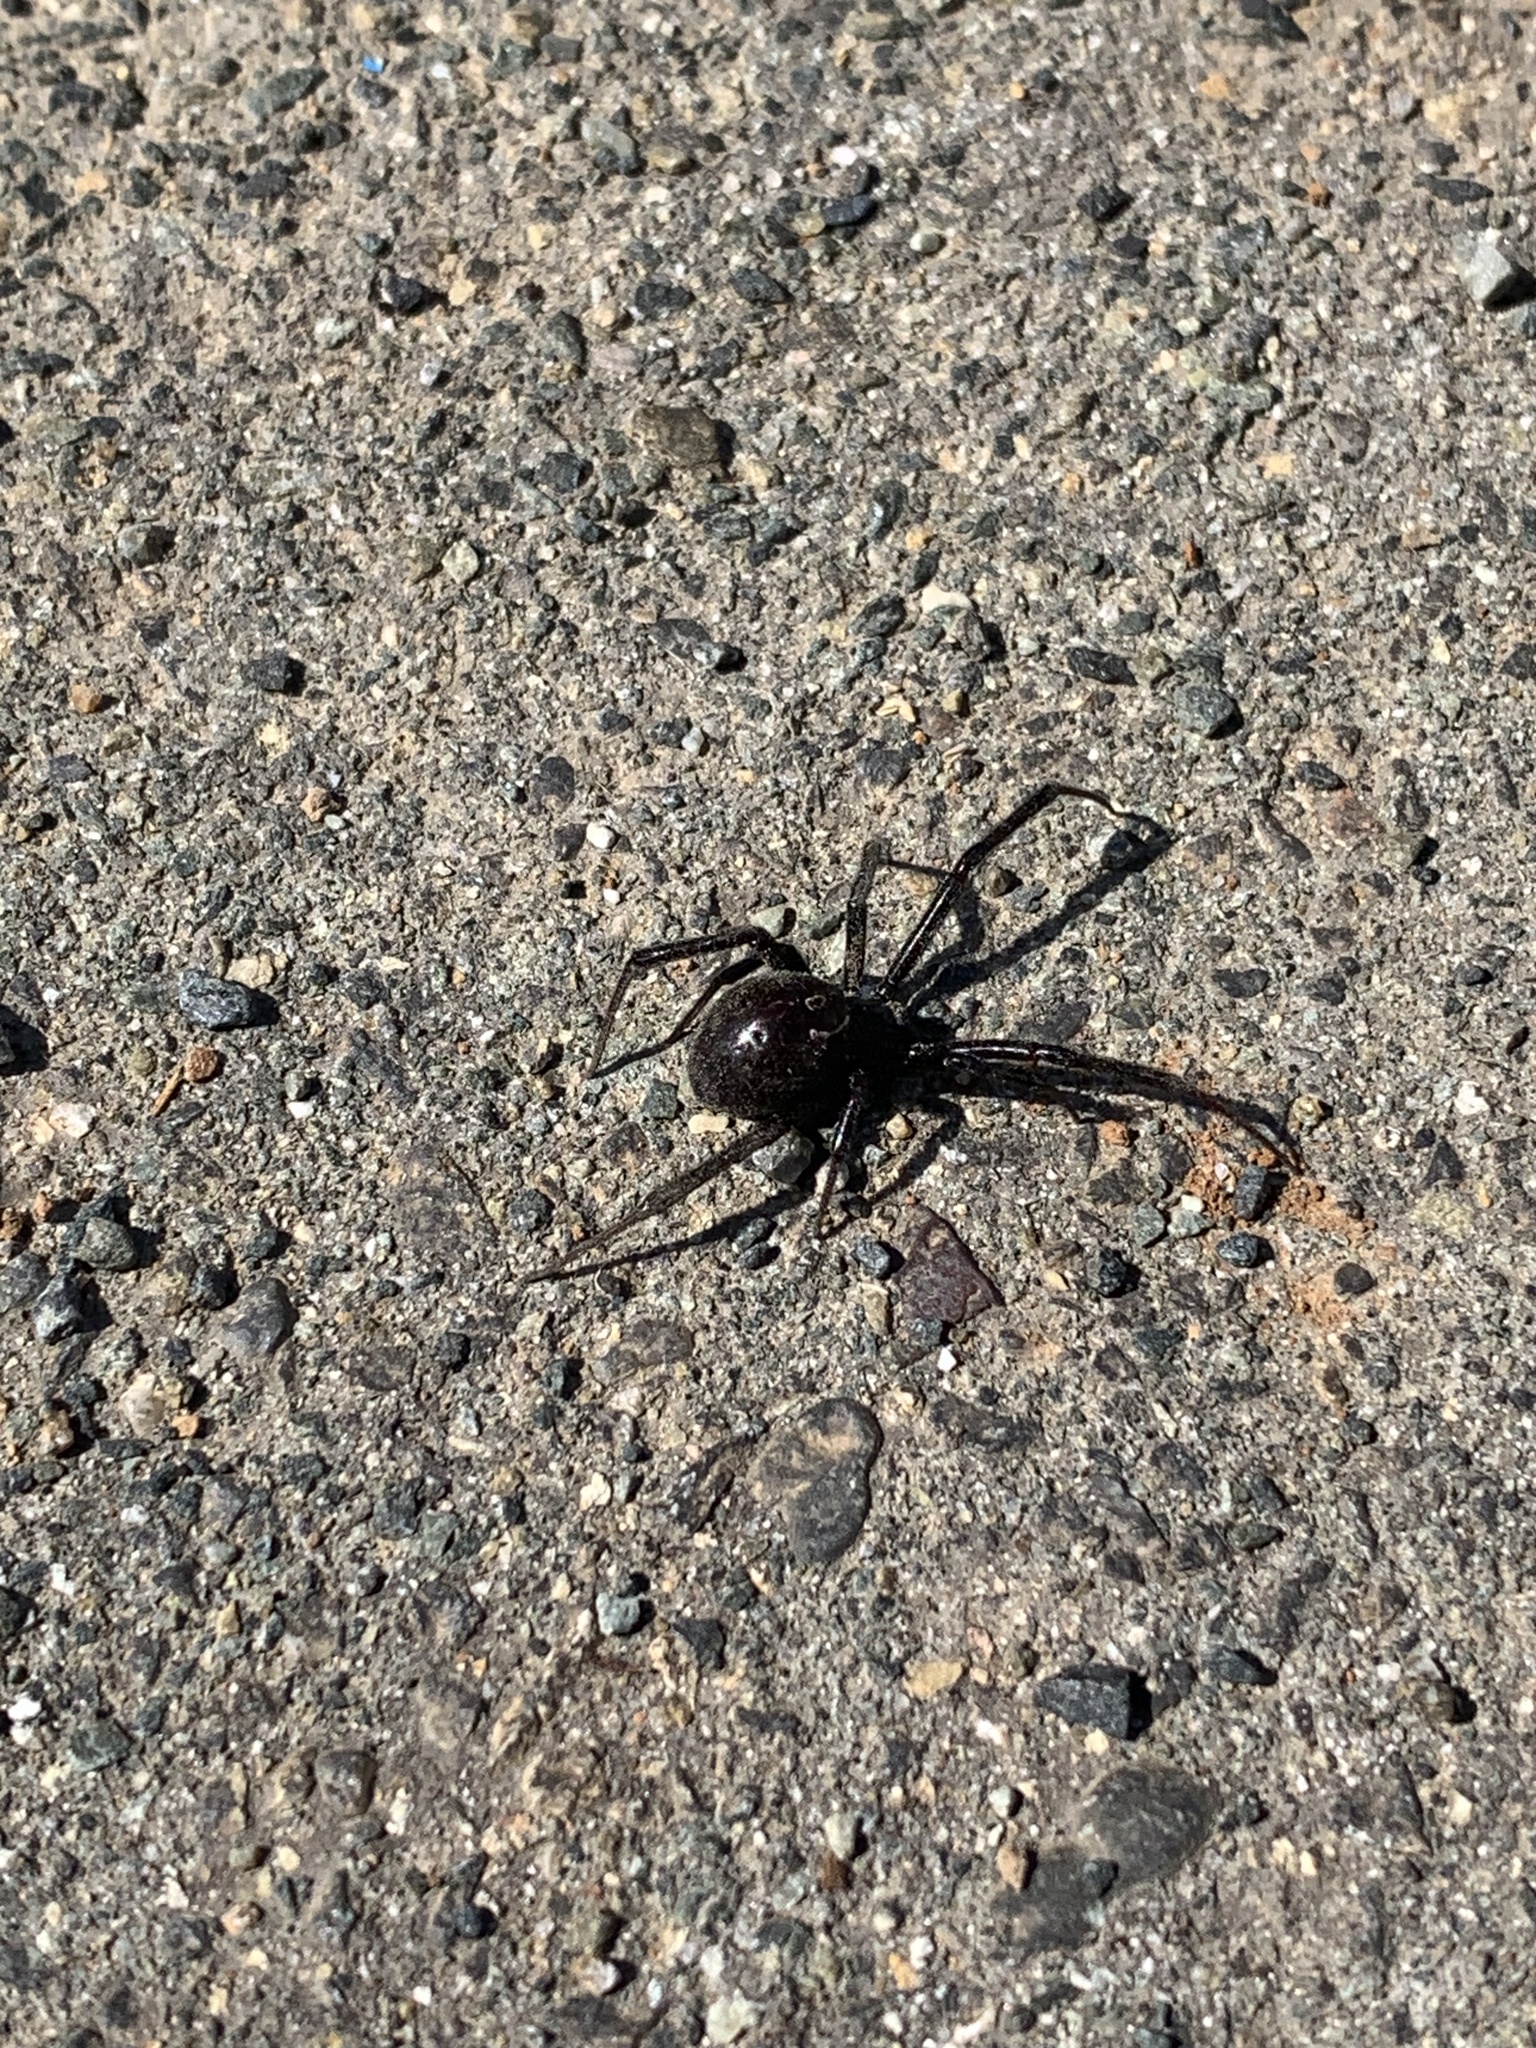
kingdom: Animalia
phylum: Arthropoda
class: Arachnida
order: Araneae
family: Theridiidae
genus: Latrodectus
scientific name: Latrodectus hesperus
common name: Western black widow
